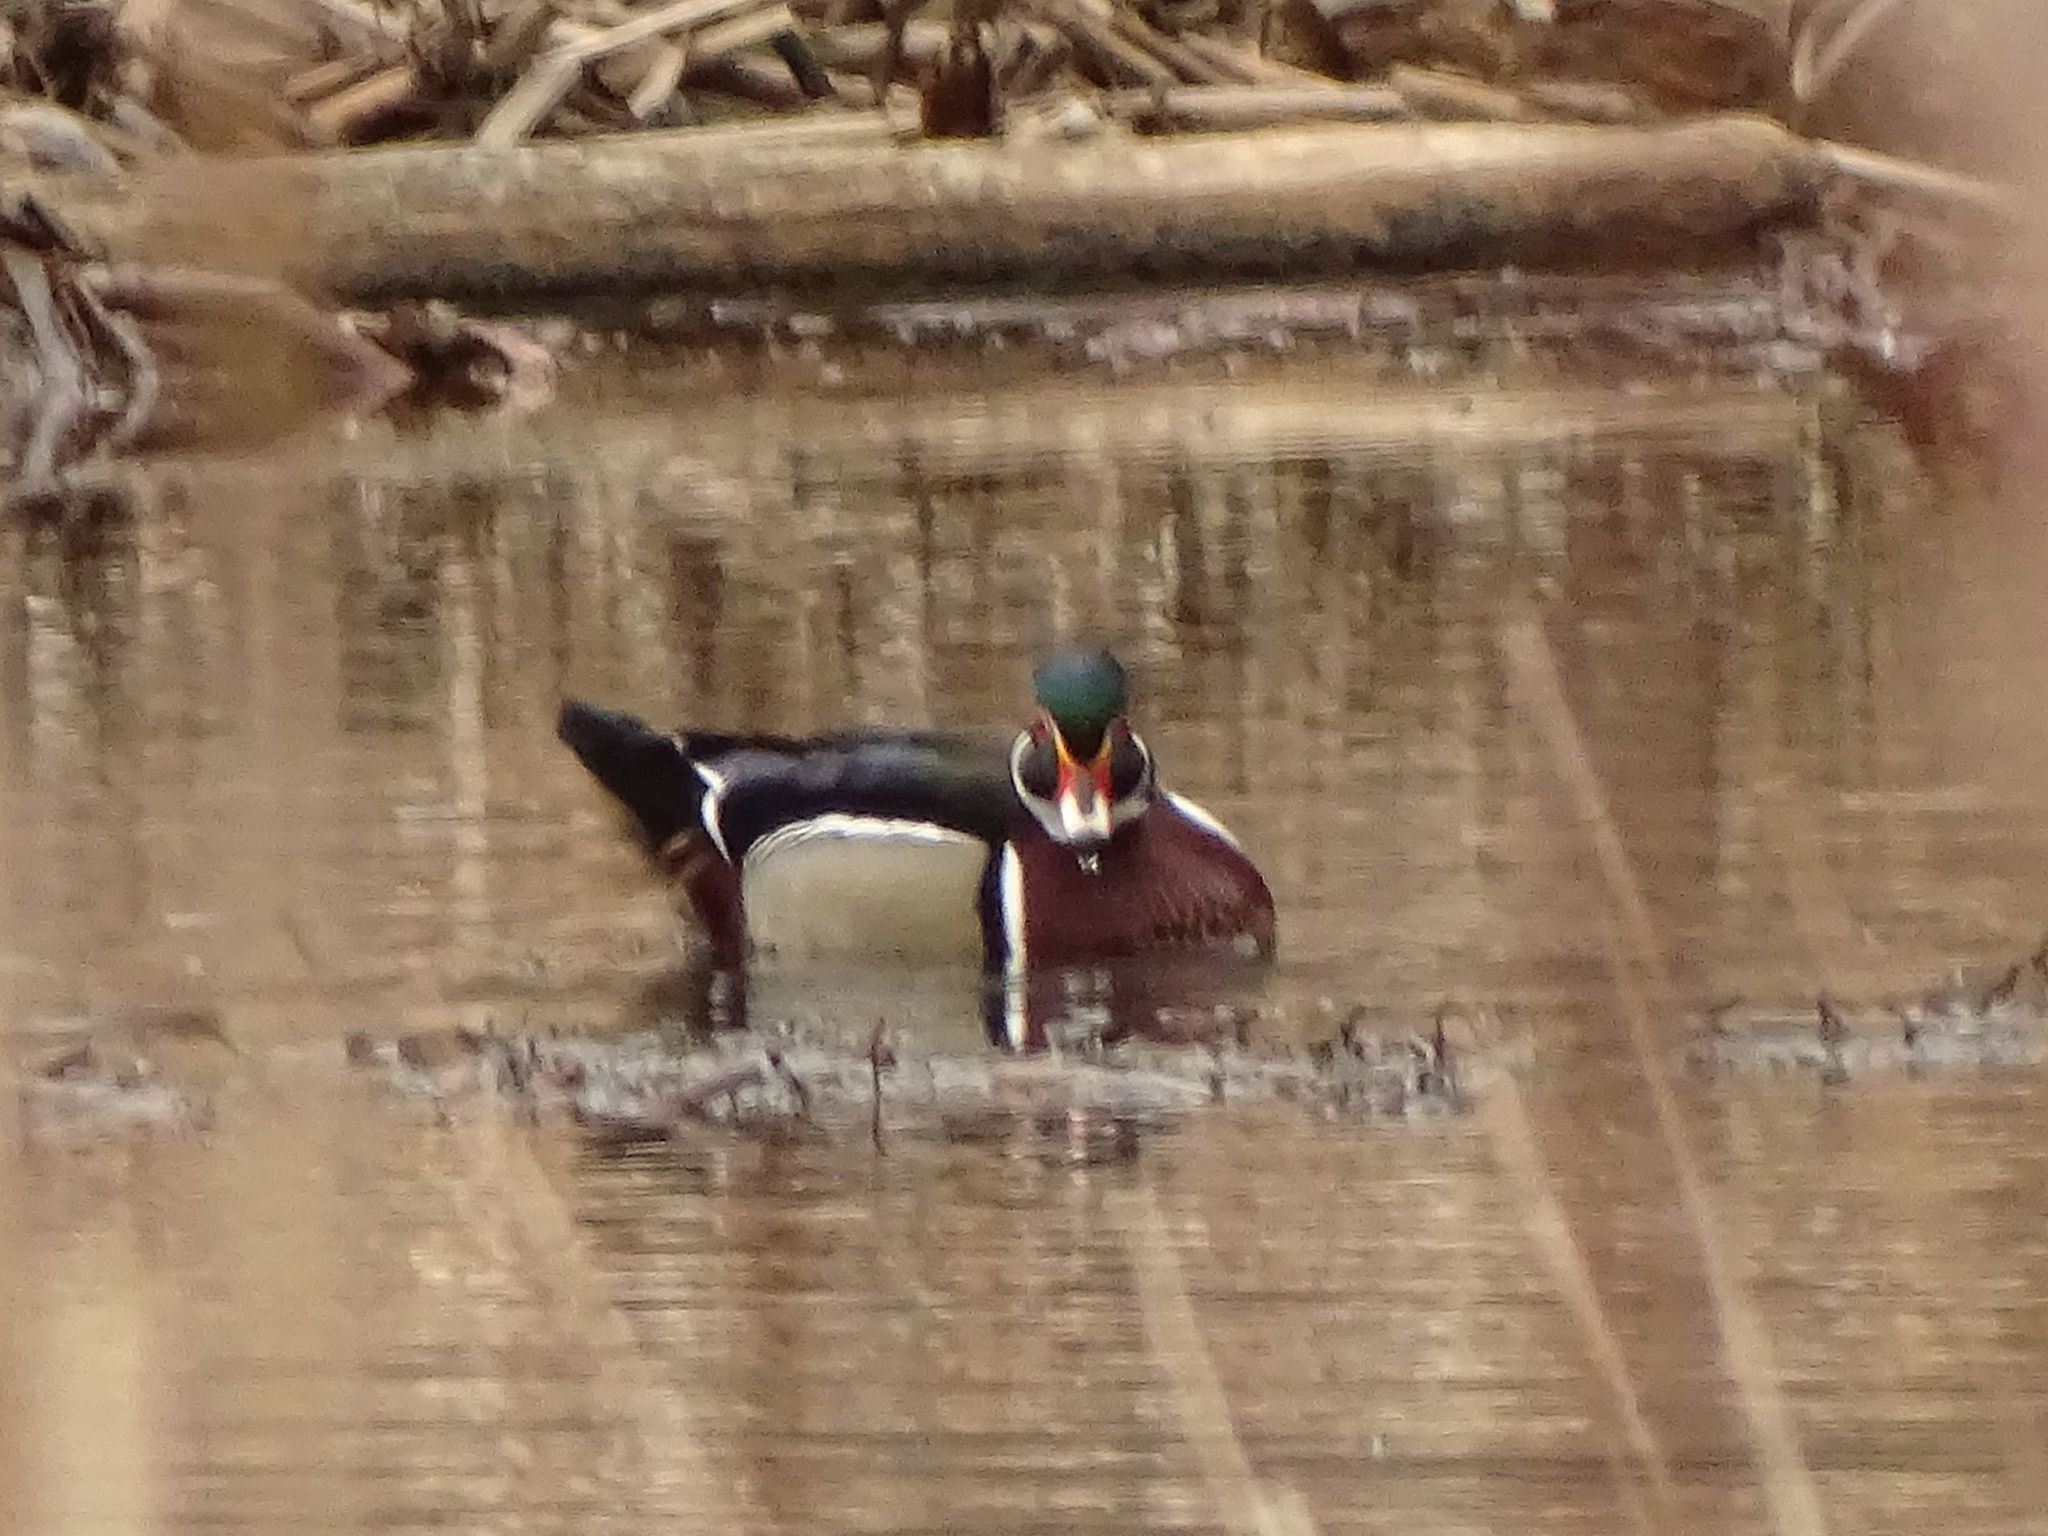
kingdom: Animalia
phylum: Chordata
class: Aves
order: Anseriformes
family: Anatidae
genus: Aix
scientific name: Aix sponsa
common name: Wood duck
